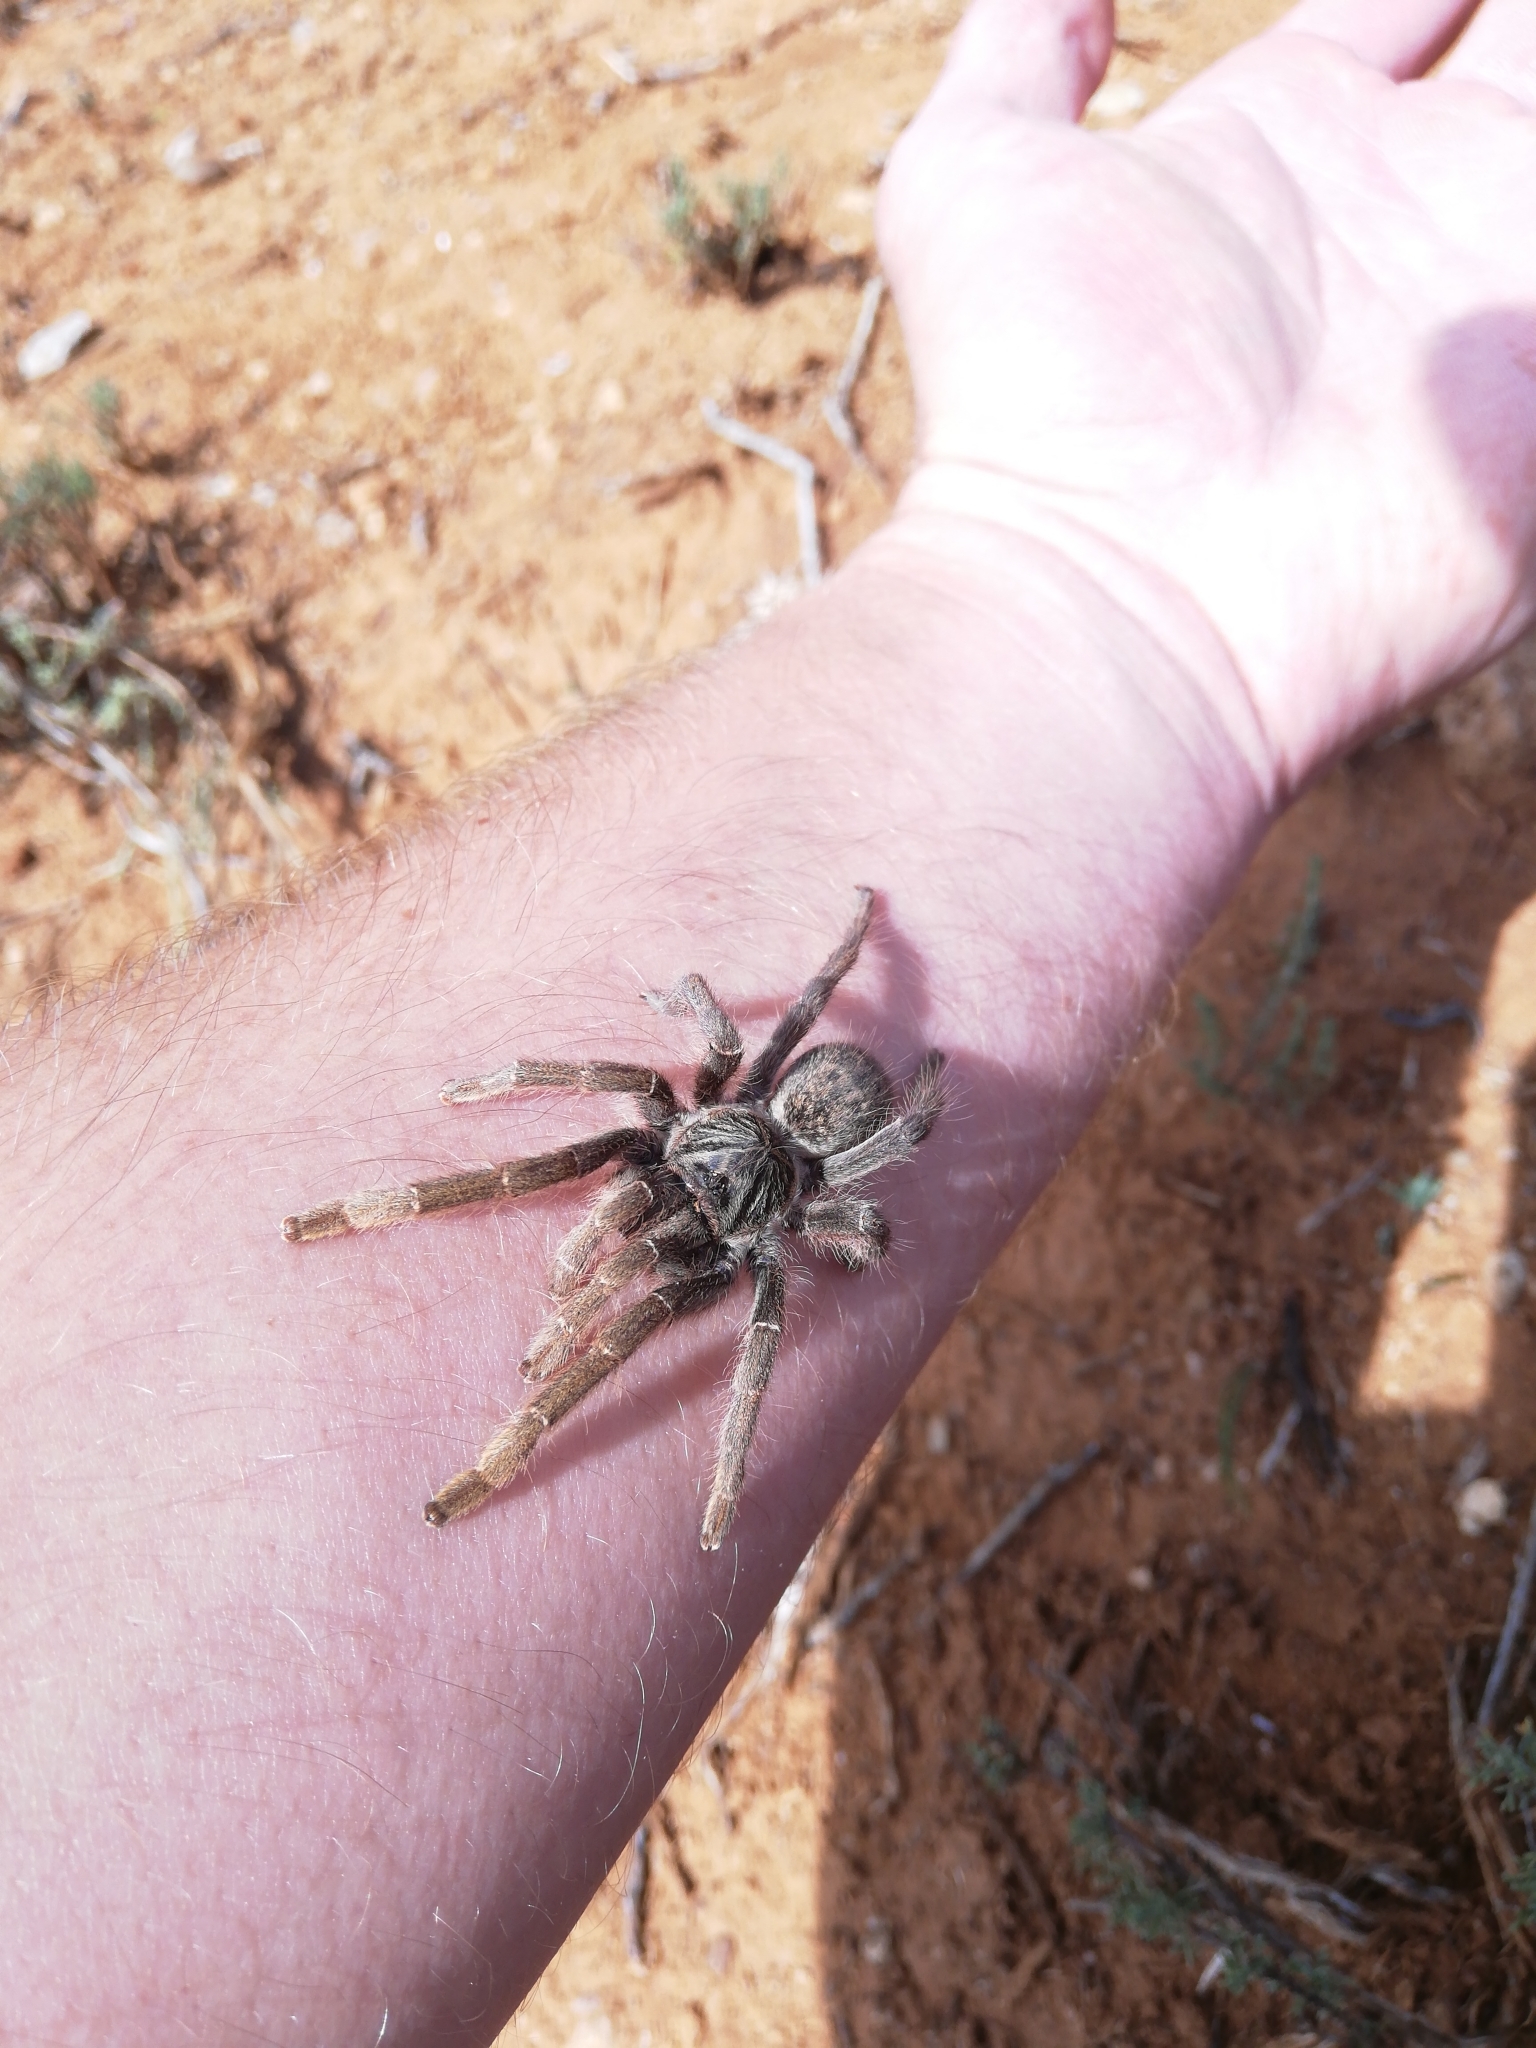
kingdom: Animalia
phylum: Arthropoda
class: Arachnida
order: Araneae
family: Theraphosidae
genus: Harpactira
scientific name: Harpactira tigrina
